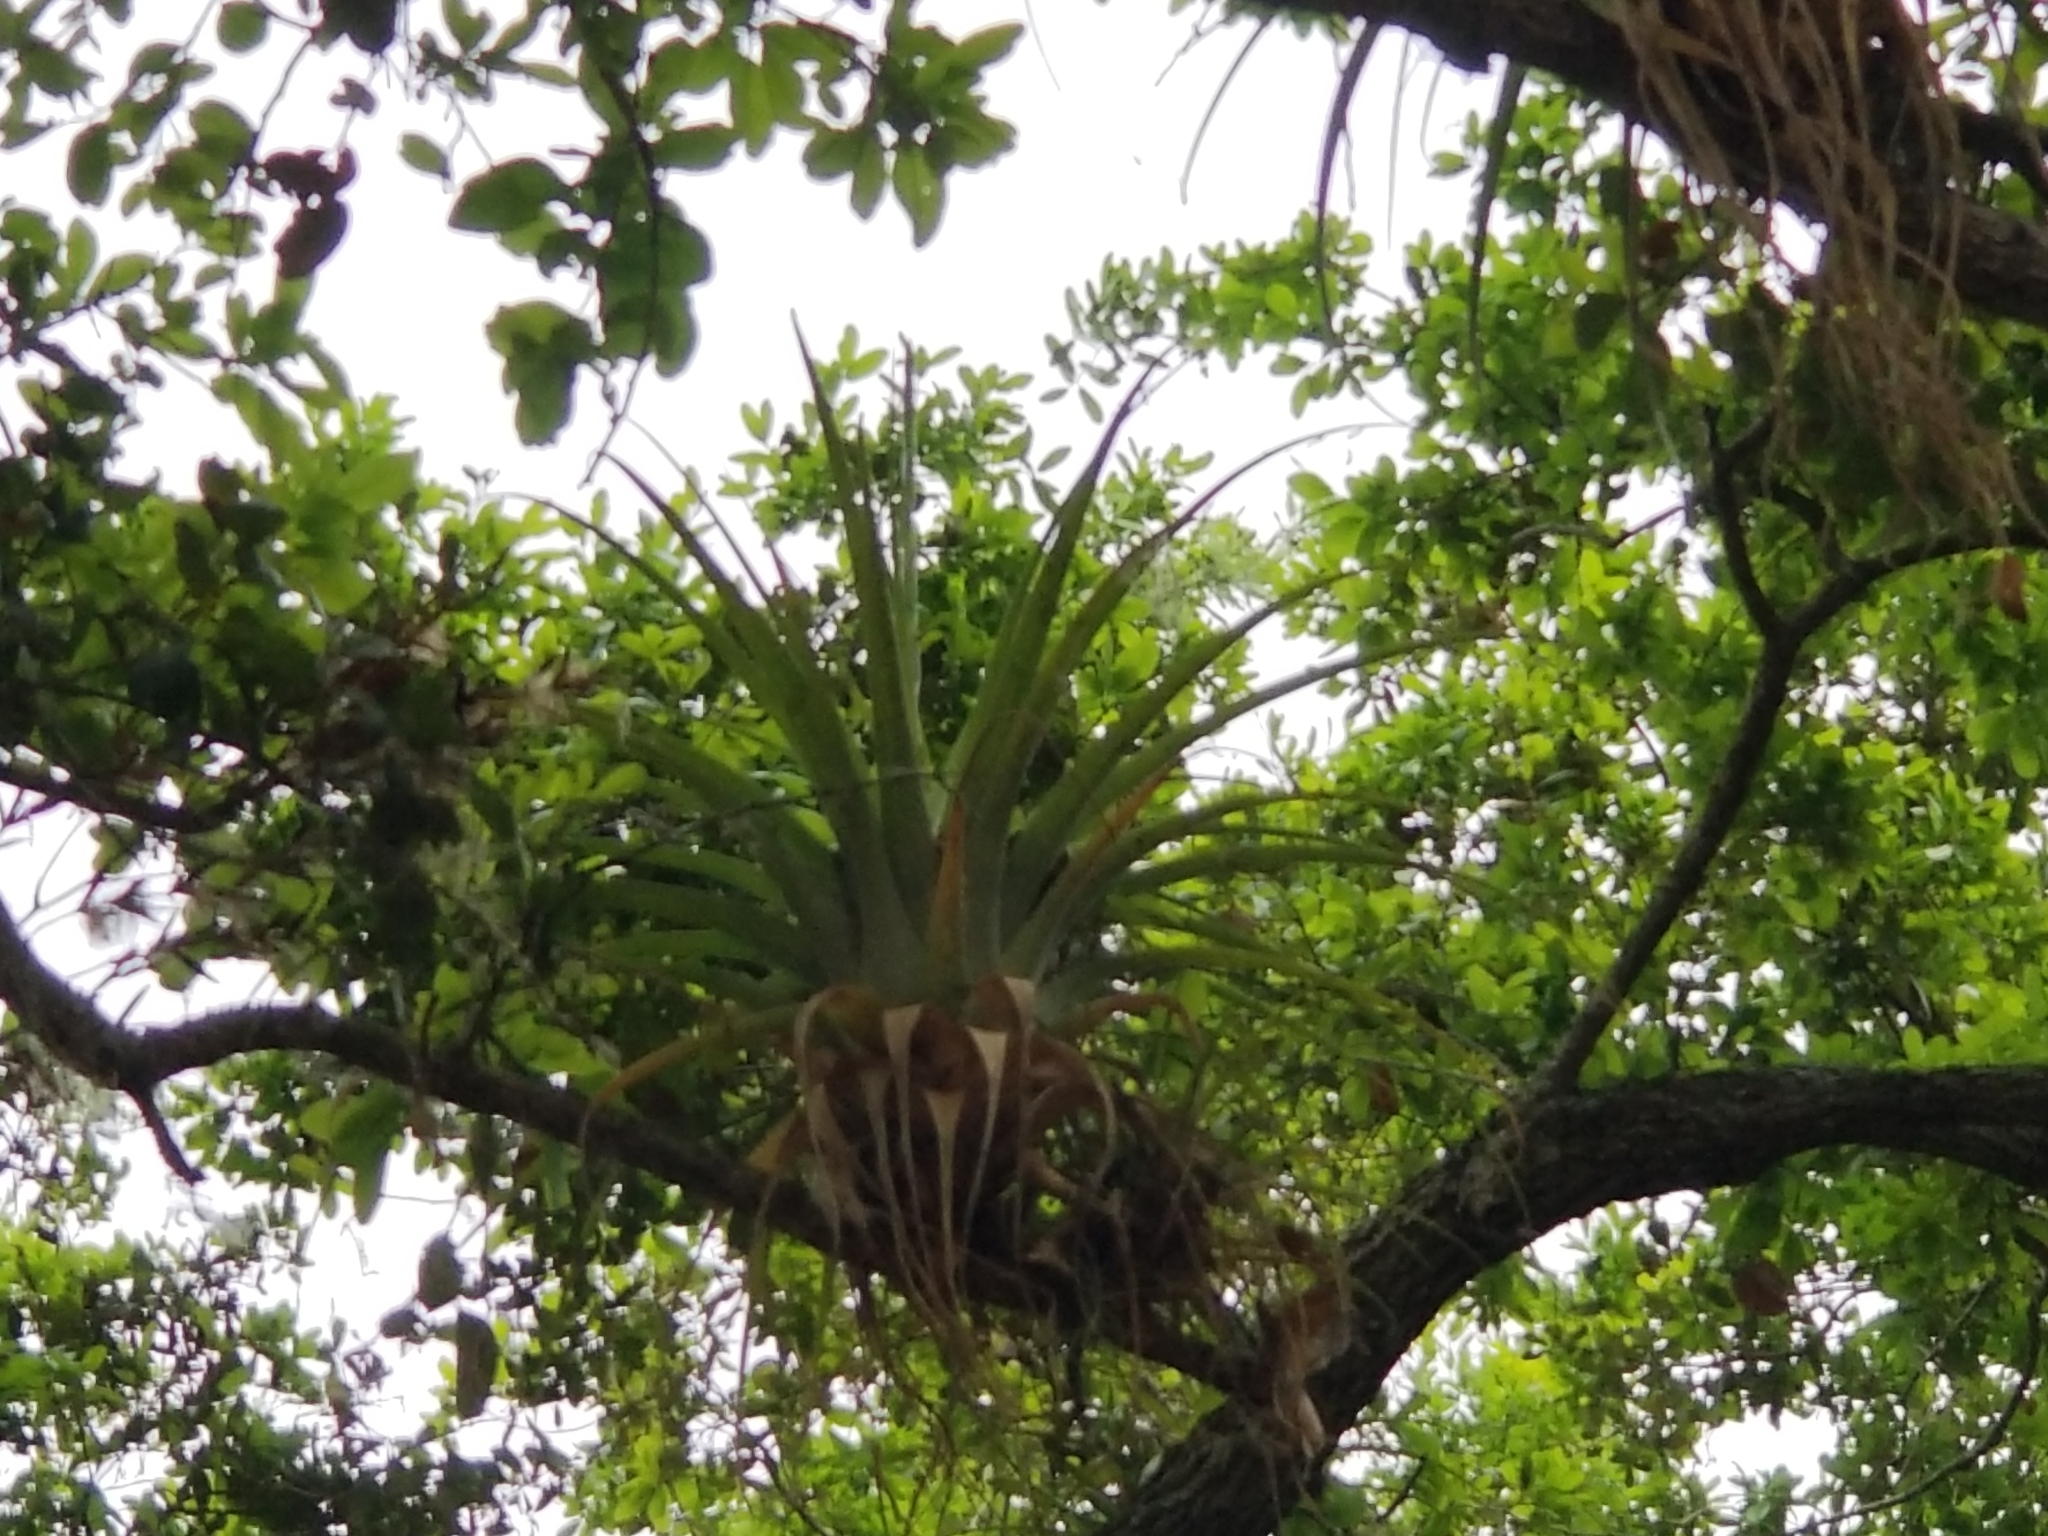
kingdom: Plantae
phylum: Tracheophyta
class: Liliopsida
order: Poales
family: Bromeliaceae
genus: Tillandsia
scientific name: Tillandsia utriculata
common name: Wild pine
